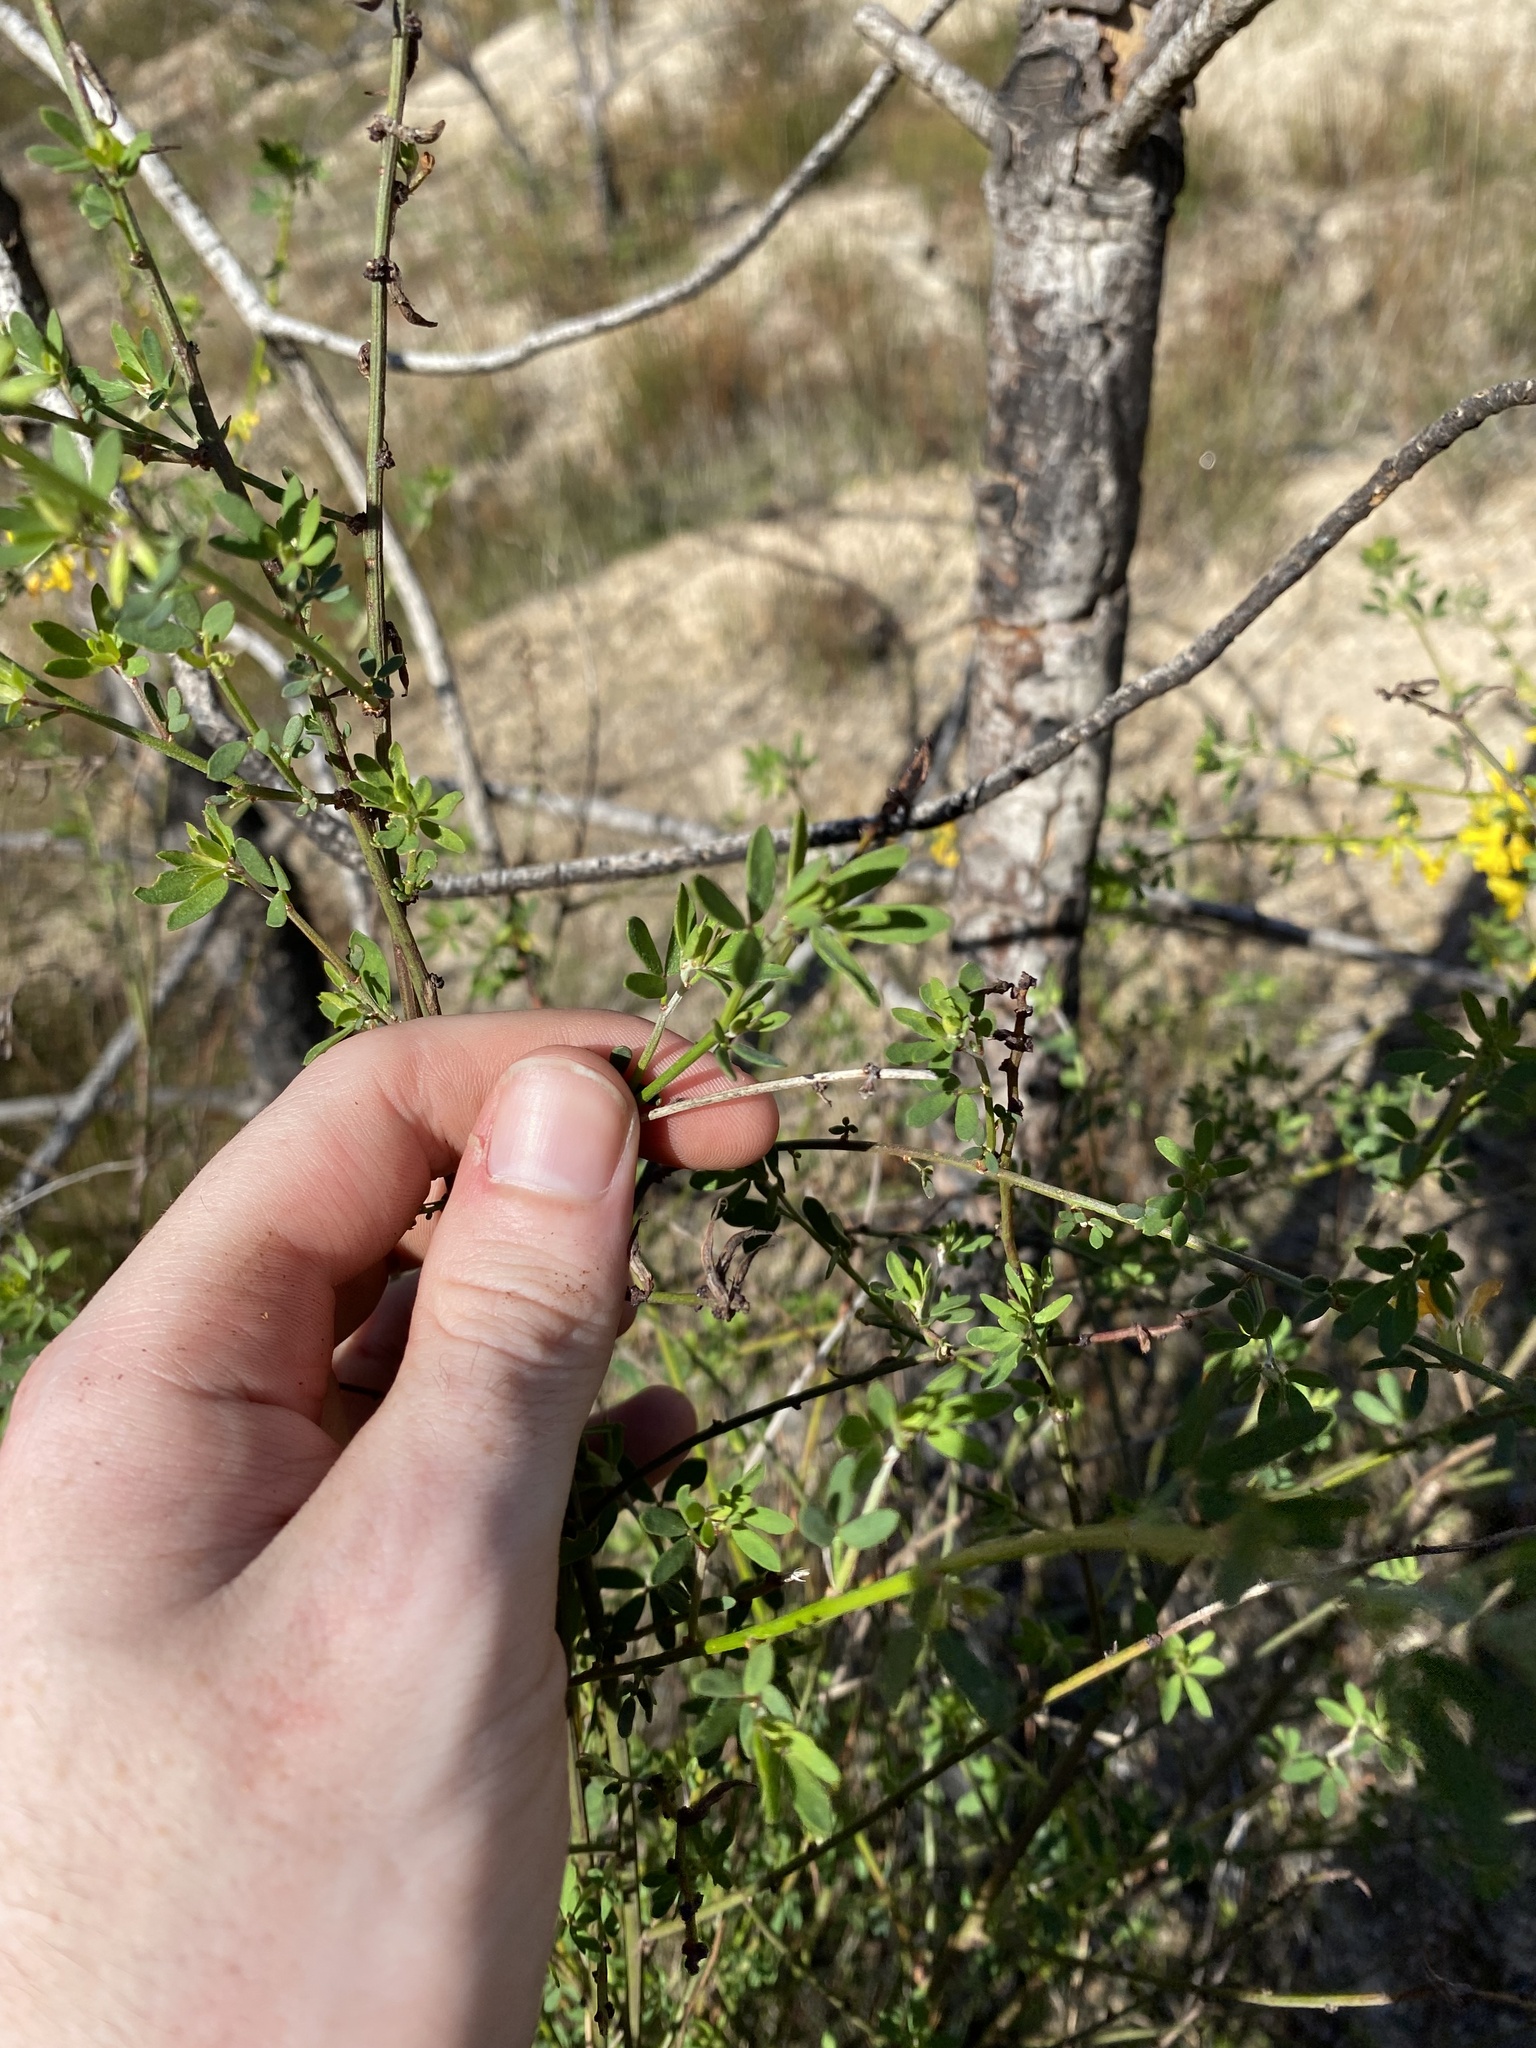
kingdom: Plantae
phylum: Tracheophyta
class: Magnoliopsida
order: Fabales
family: Fabaceae
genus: Acmispon
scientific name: Acmispon glaber
